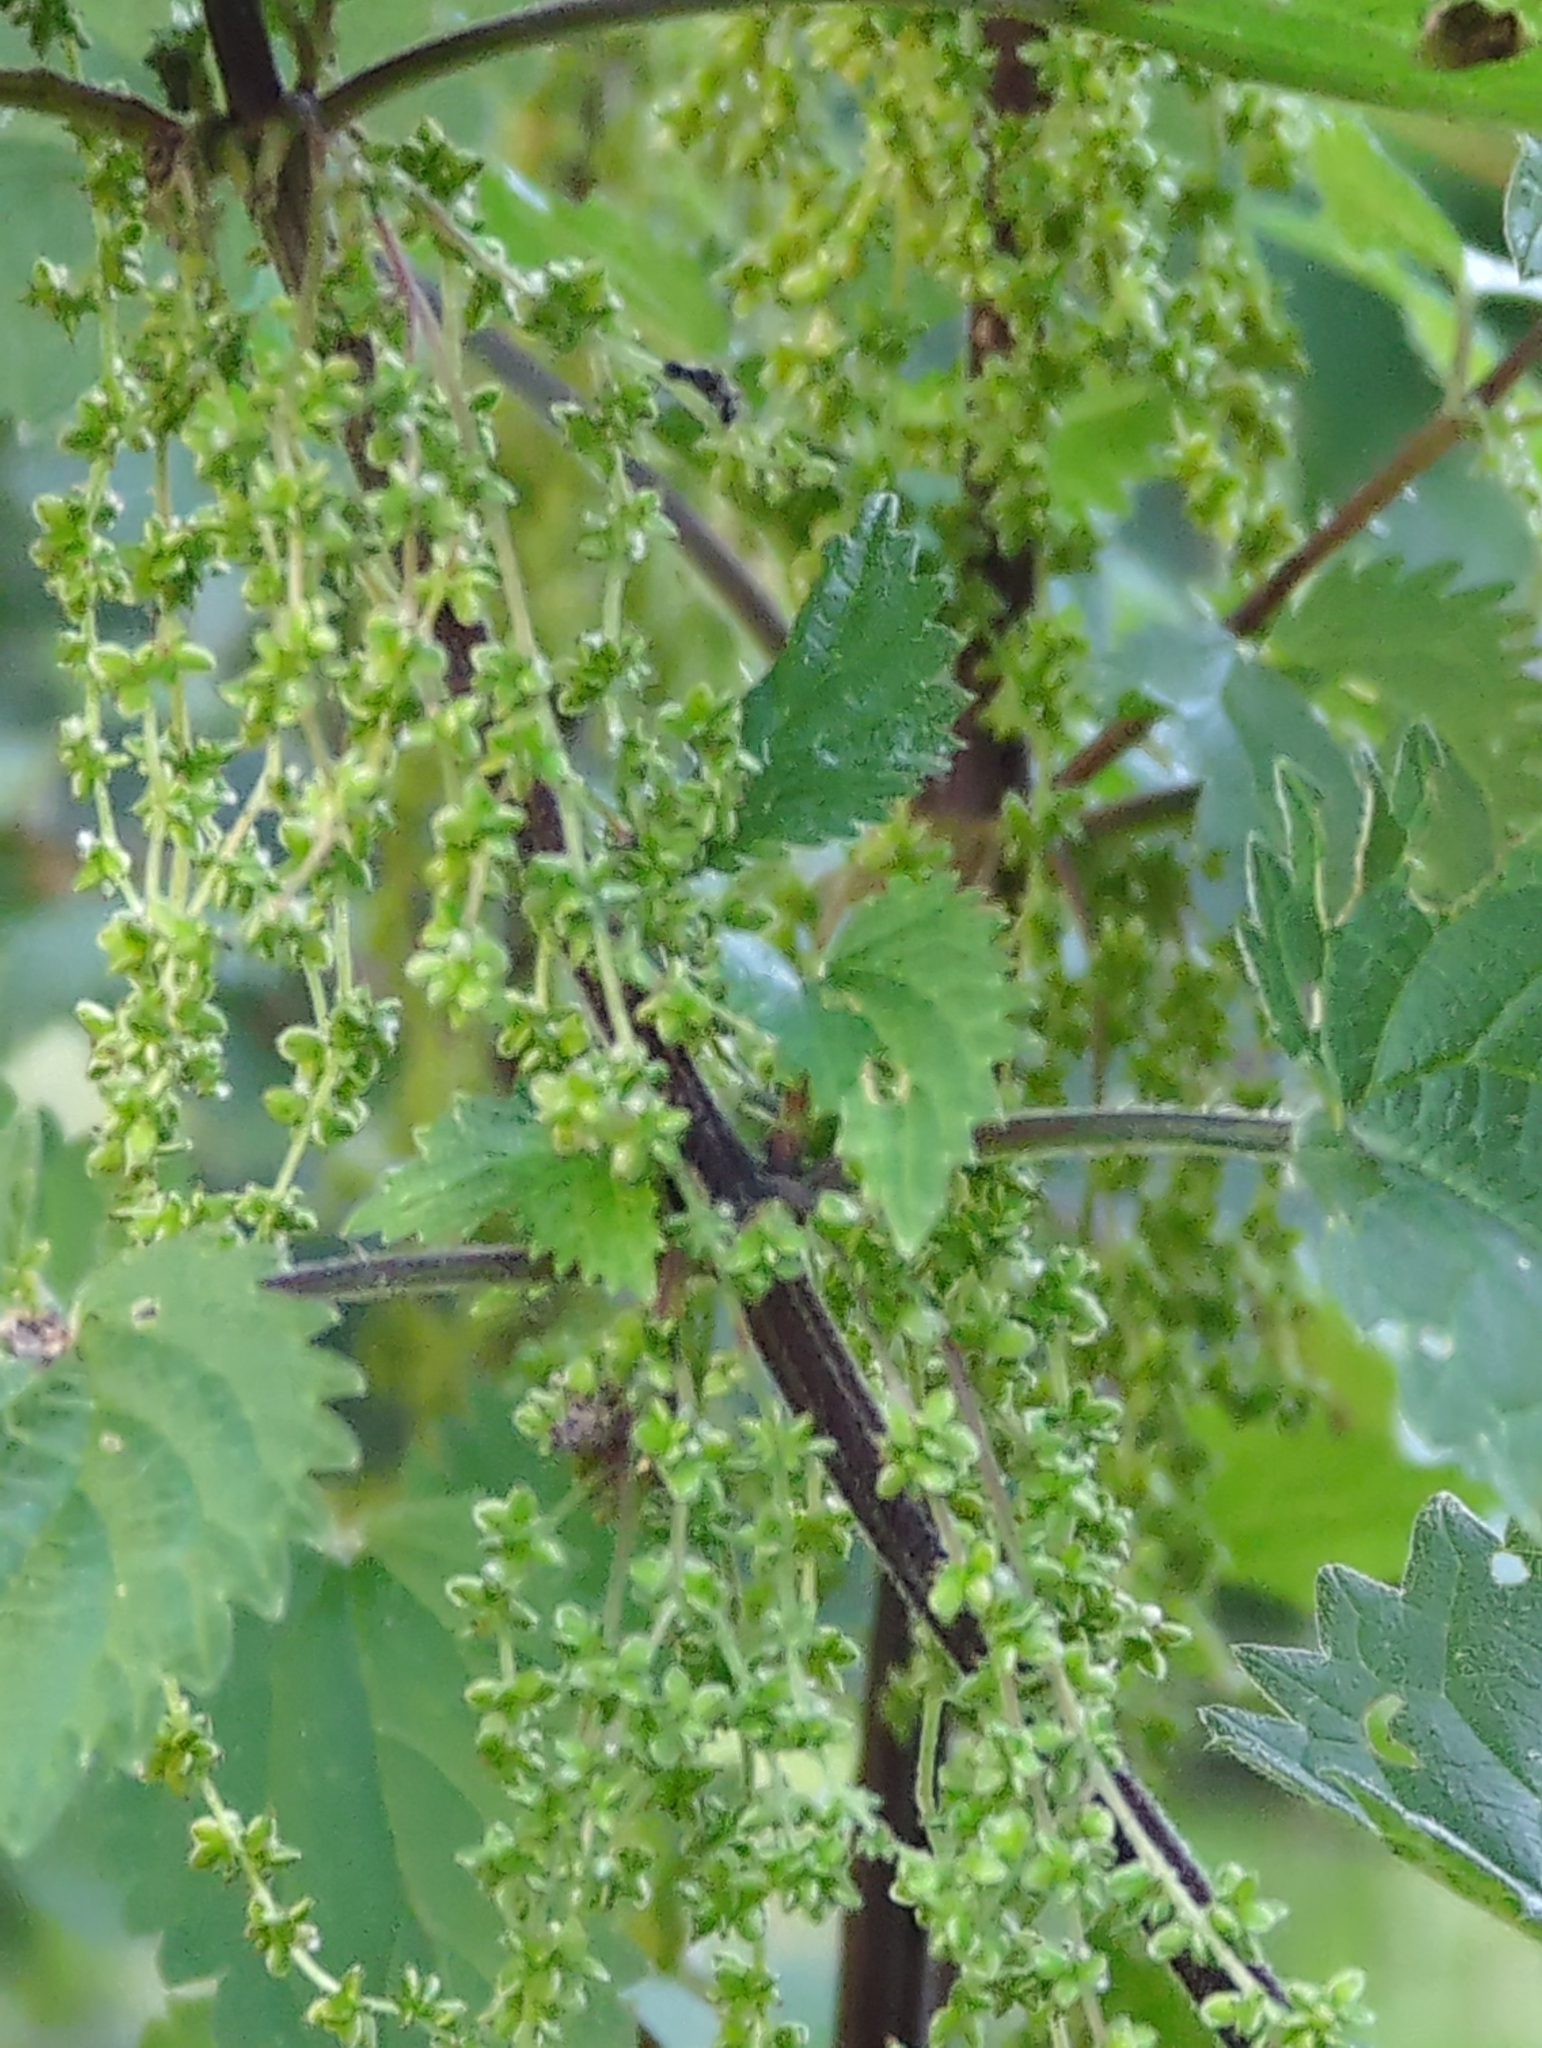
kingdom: Plantae
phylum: Tracheophyta
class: Magnoliopsida
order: Rosales
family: Urticaceae
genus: Urtica
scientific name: Urtica dioica
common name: Common nettle
